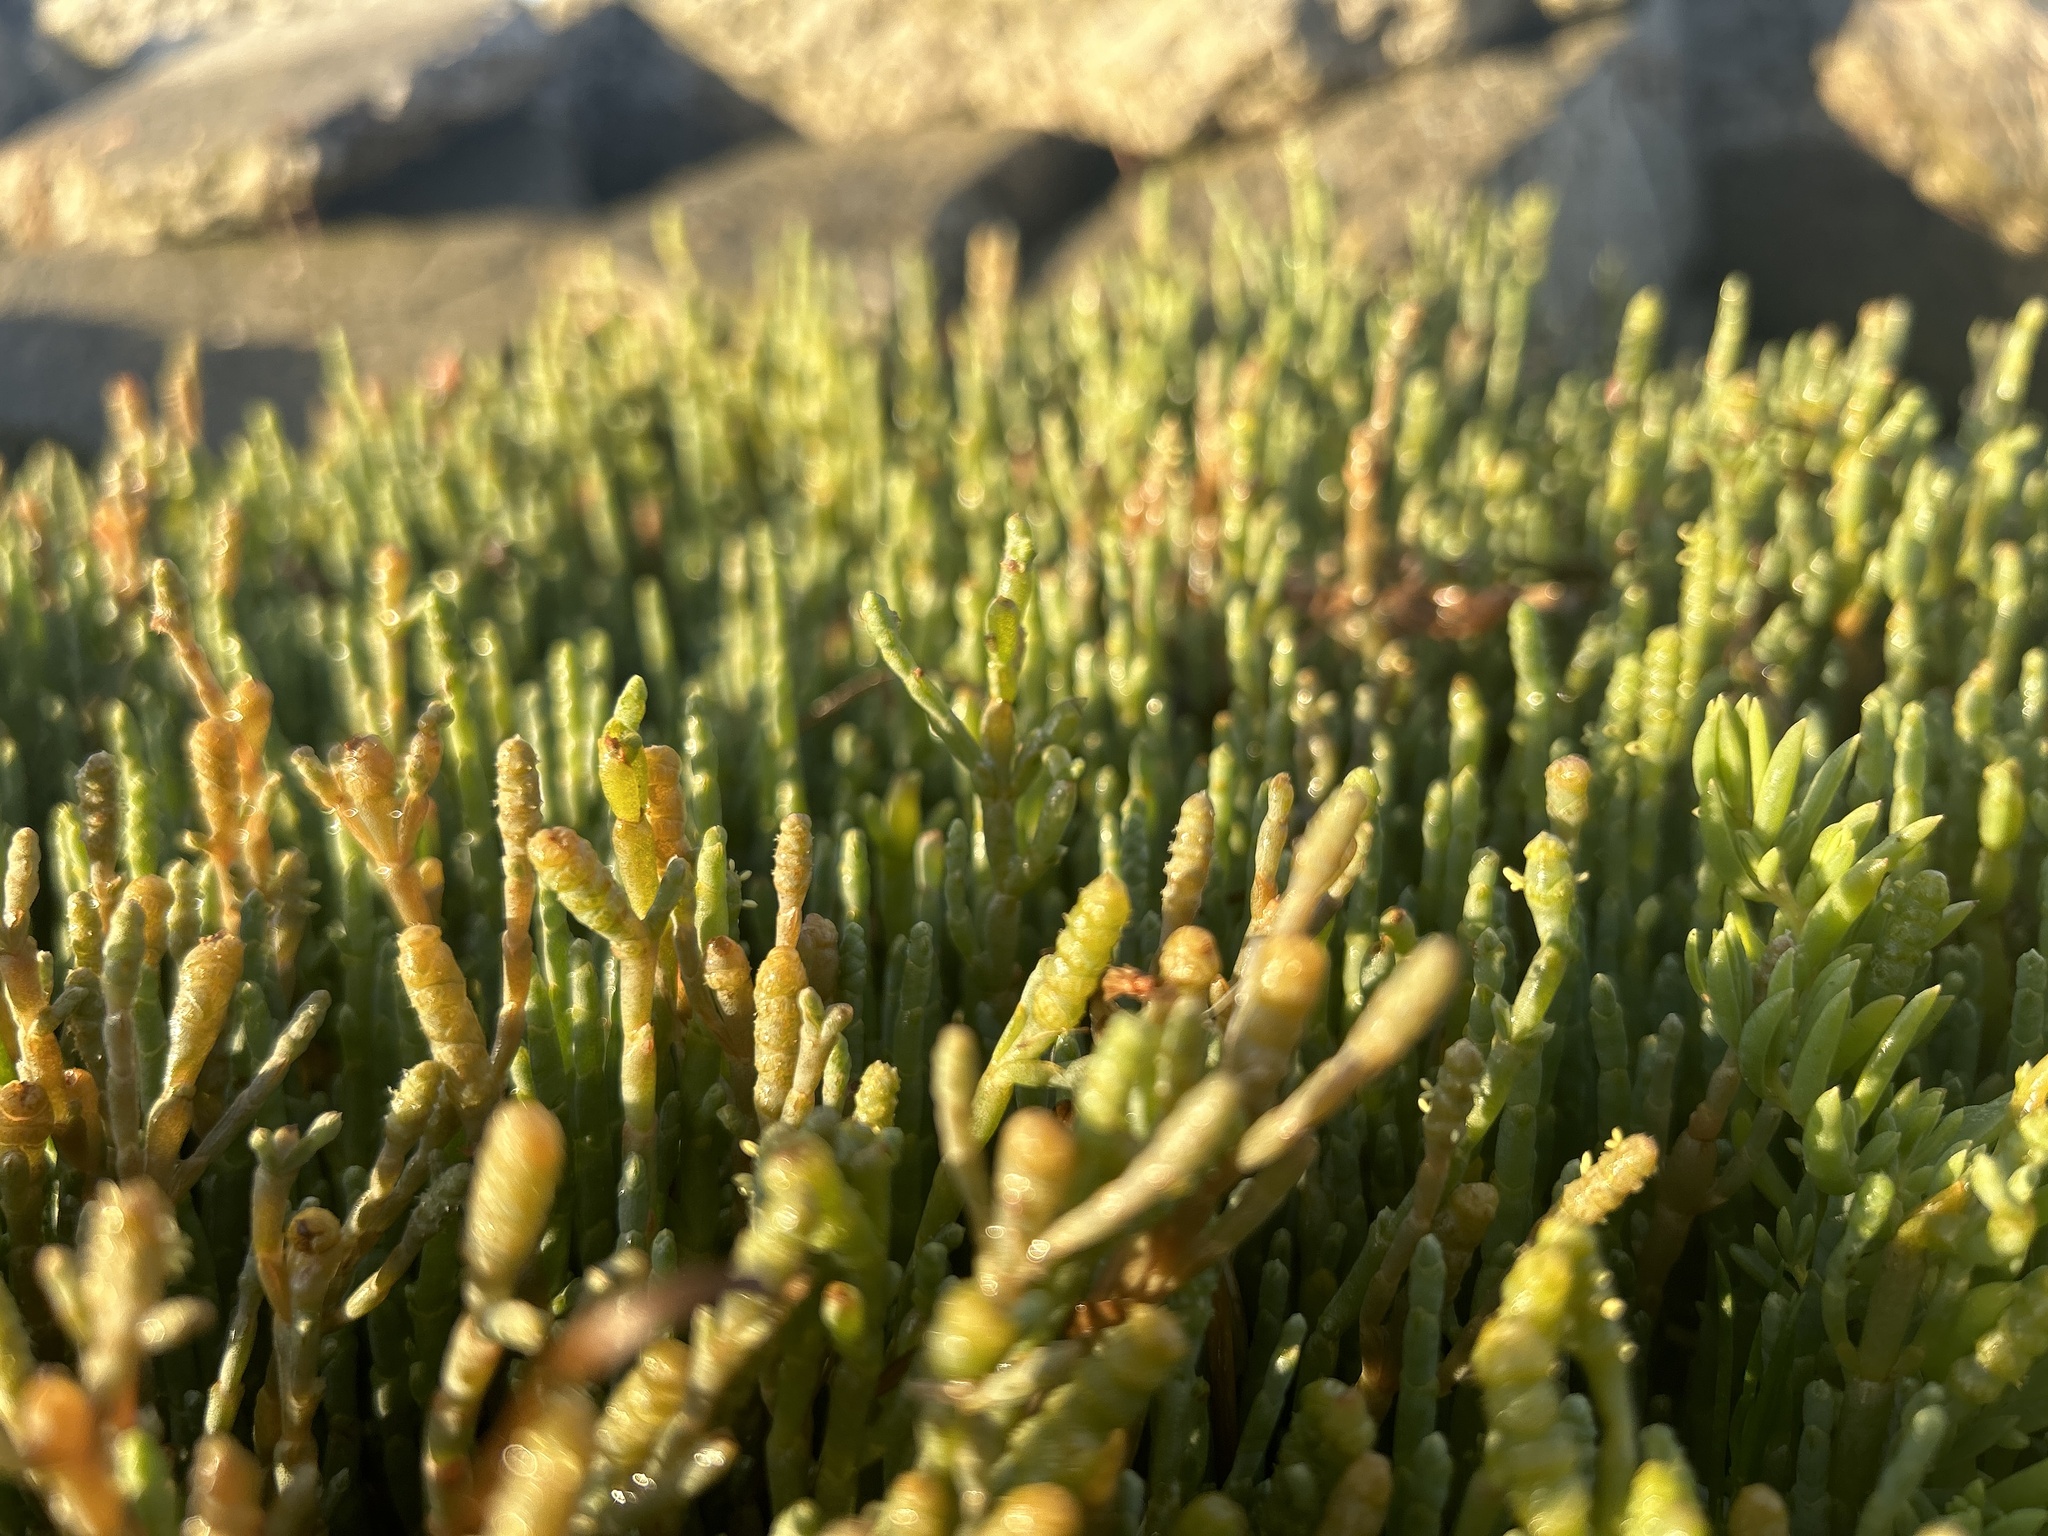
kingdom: Plantae
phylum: Tracheophyta
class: Magnoliopsida
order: Caryophyllales
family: Amaranthaceae
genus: Salicornia
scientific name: Salicornia quinqueflora
